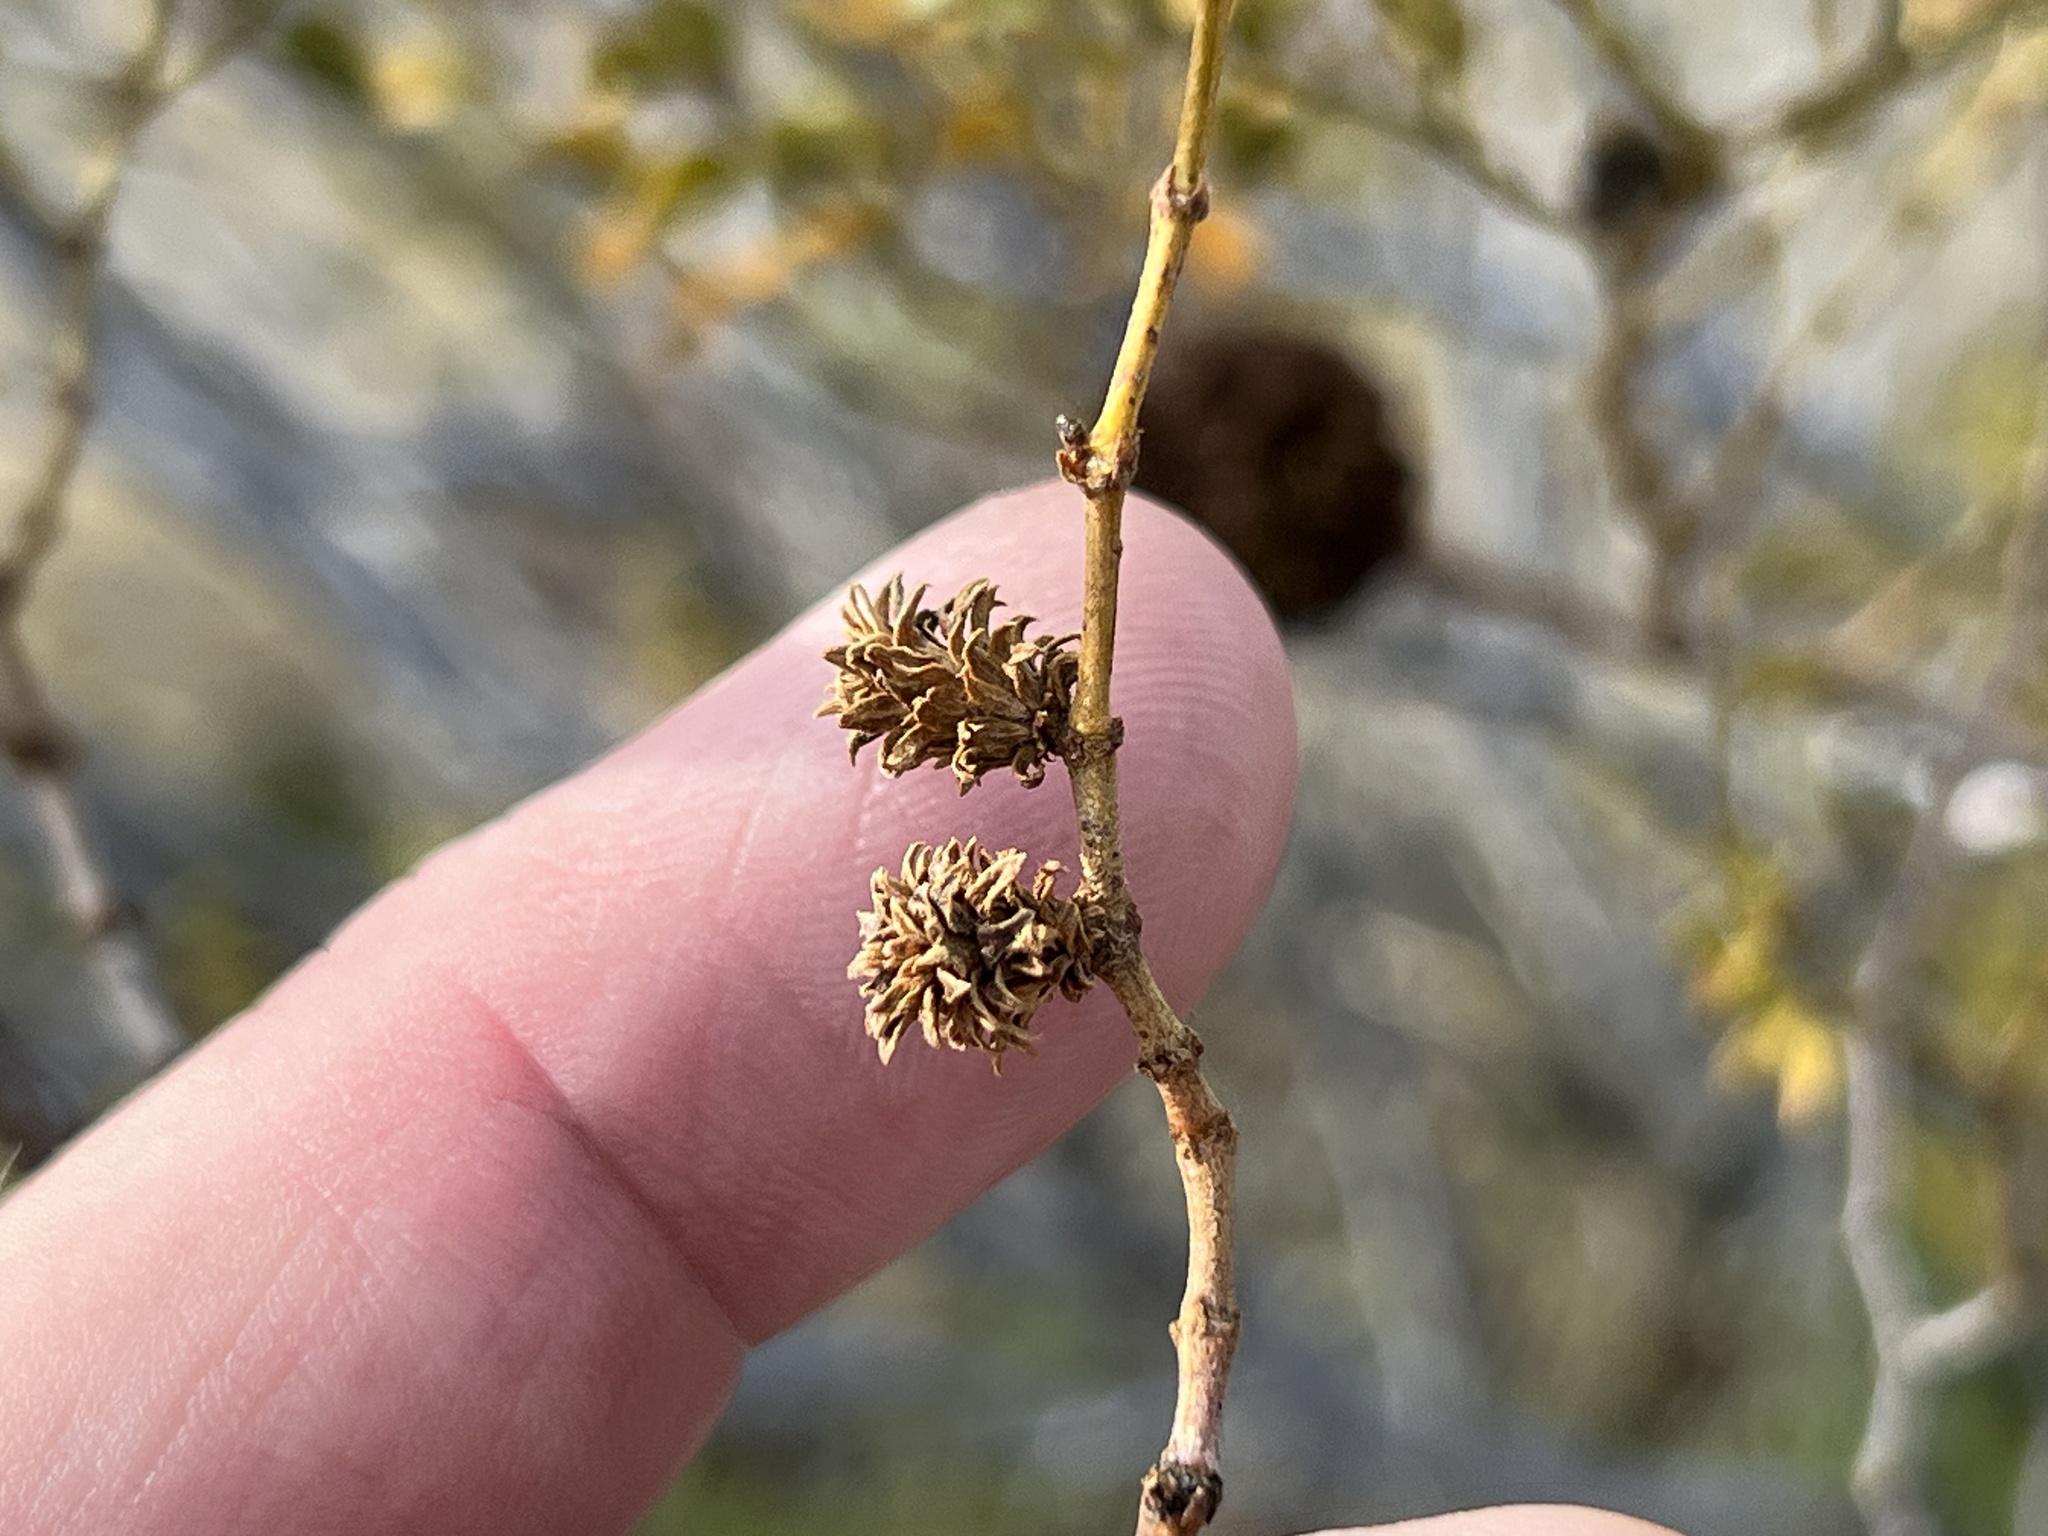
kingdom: Animalia
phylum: Arthropoda
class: Insecta
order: Diptera
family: Cecidomyiidae
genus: Asphondylia
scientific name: Asphondylia rosetta
